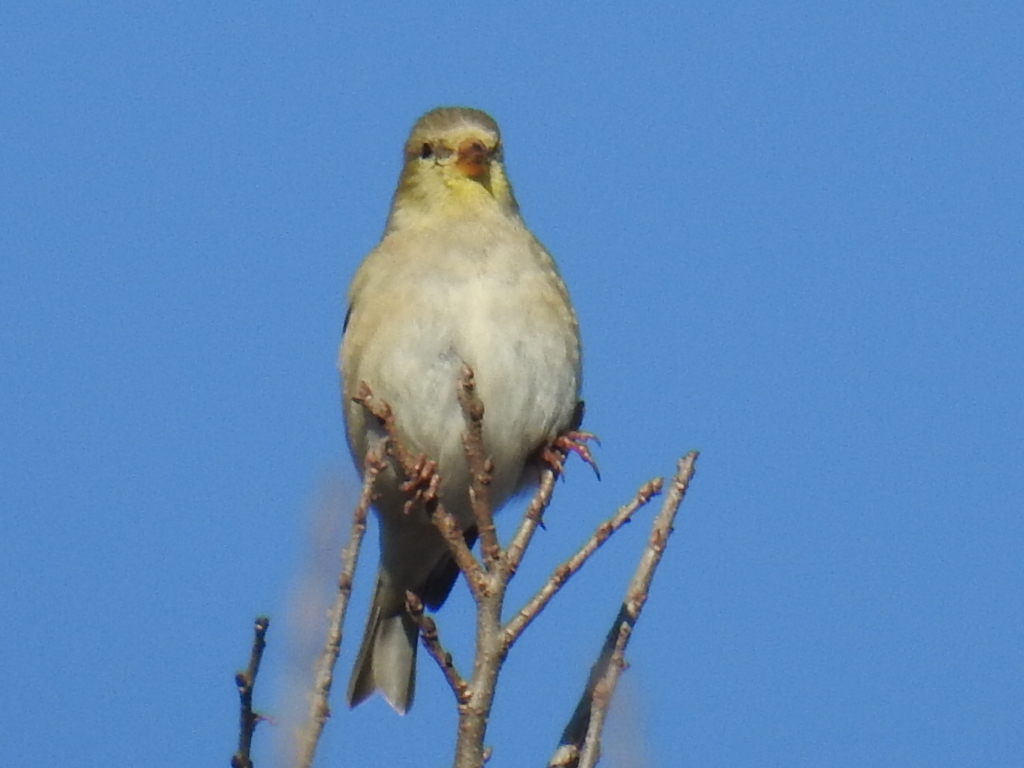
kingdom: Animalia
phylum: Chordata
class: Aves
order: Passeriformes
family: Fringillidae
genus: Spinus
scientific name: Spinus tristis
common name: American goldfinch
